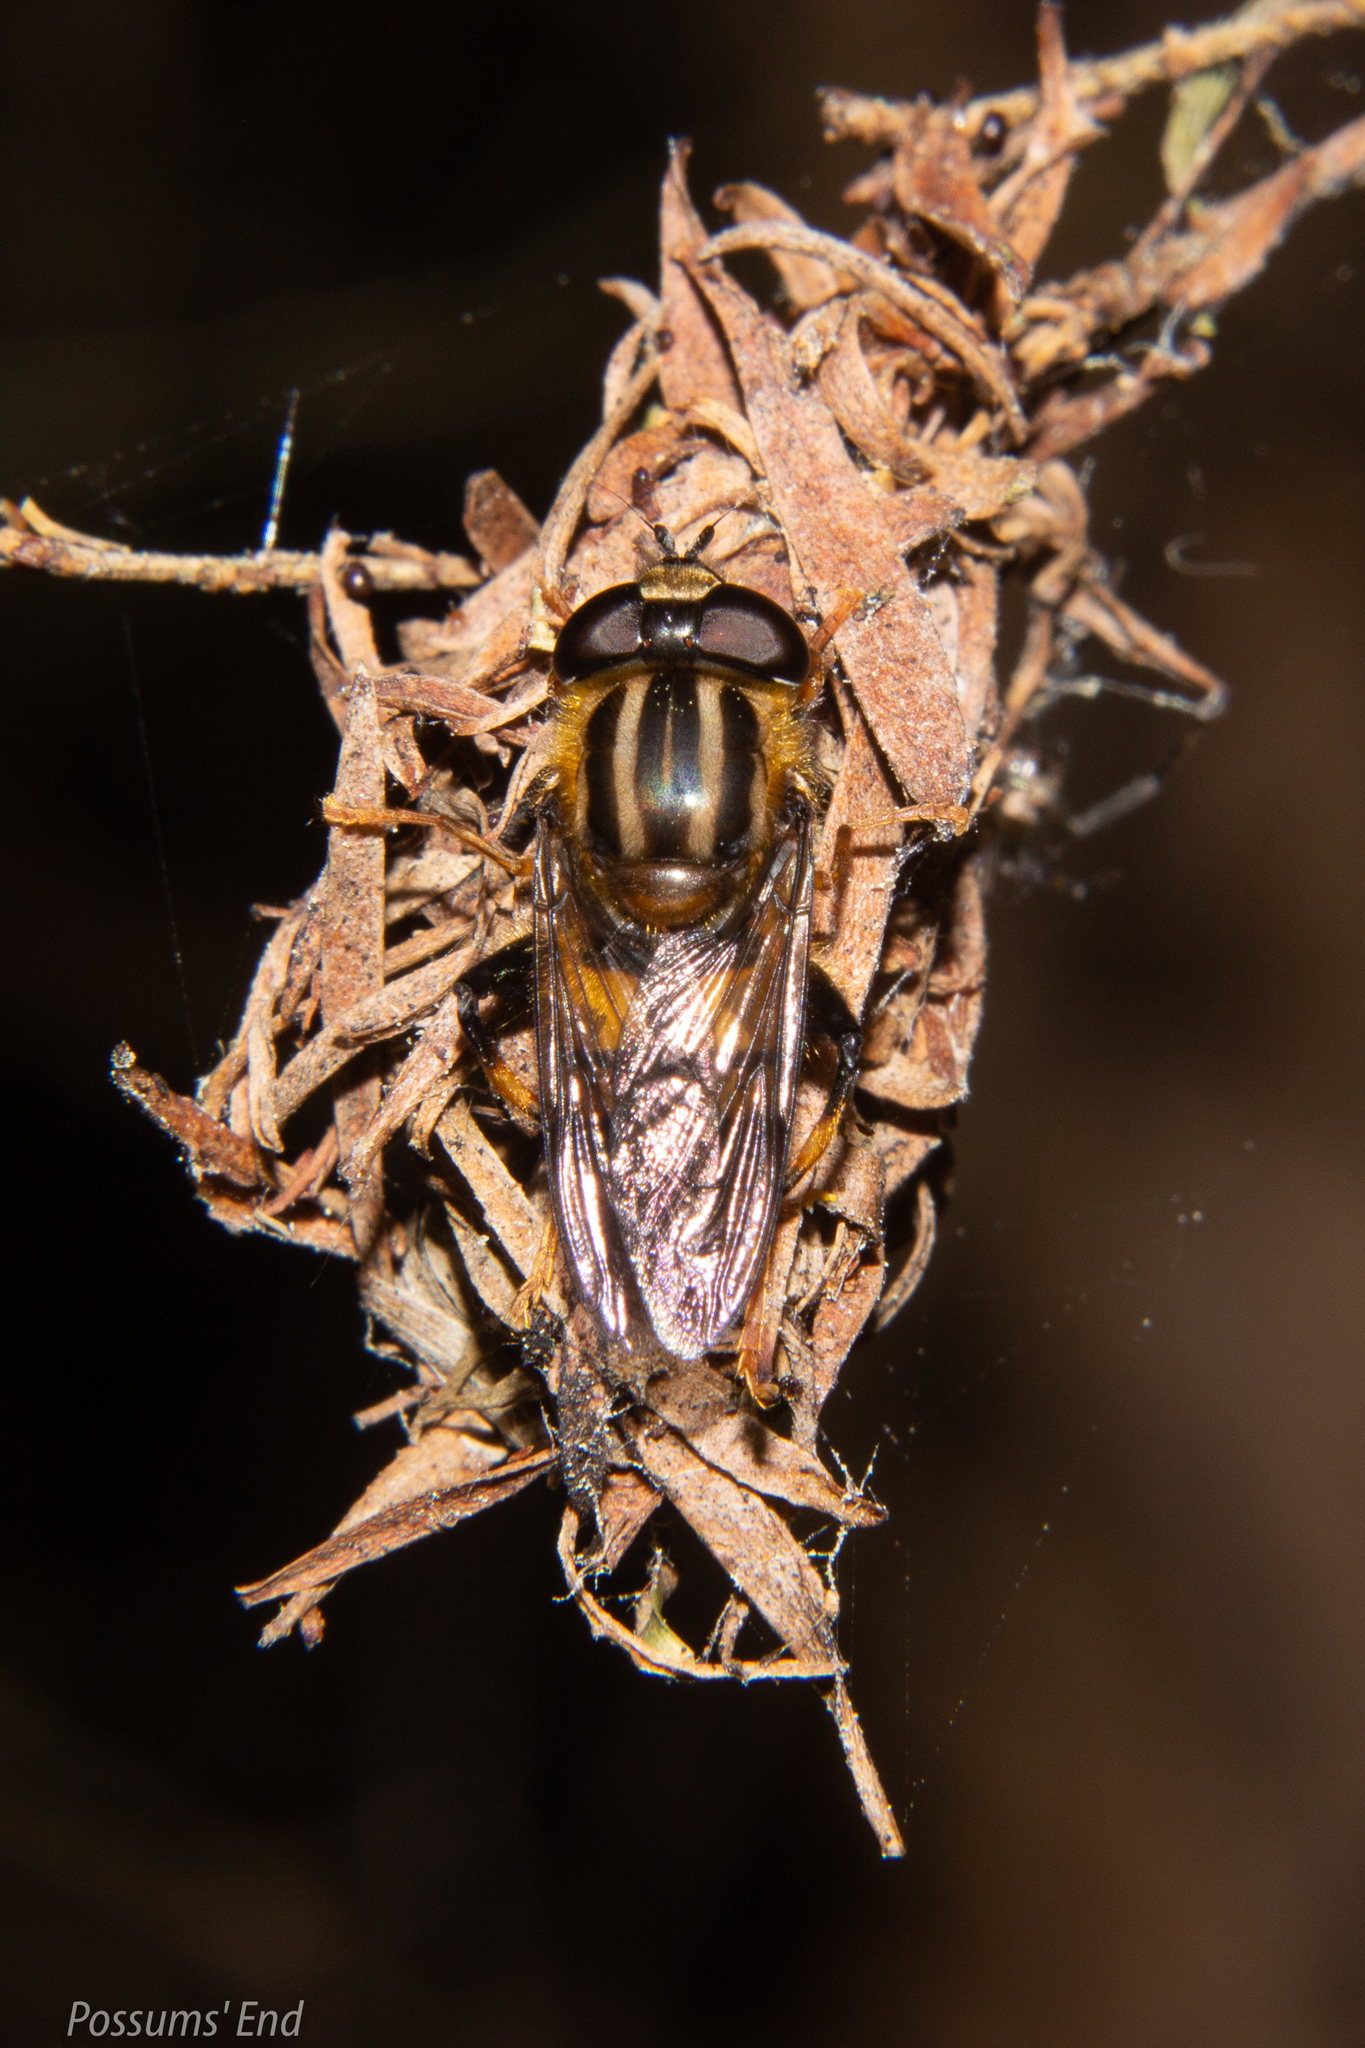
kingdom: Animalia
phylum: Arthropoda
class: Insecta
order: Diptera
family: Syrphidae
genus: Helophilus
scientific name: Helophilus antipodus
